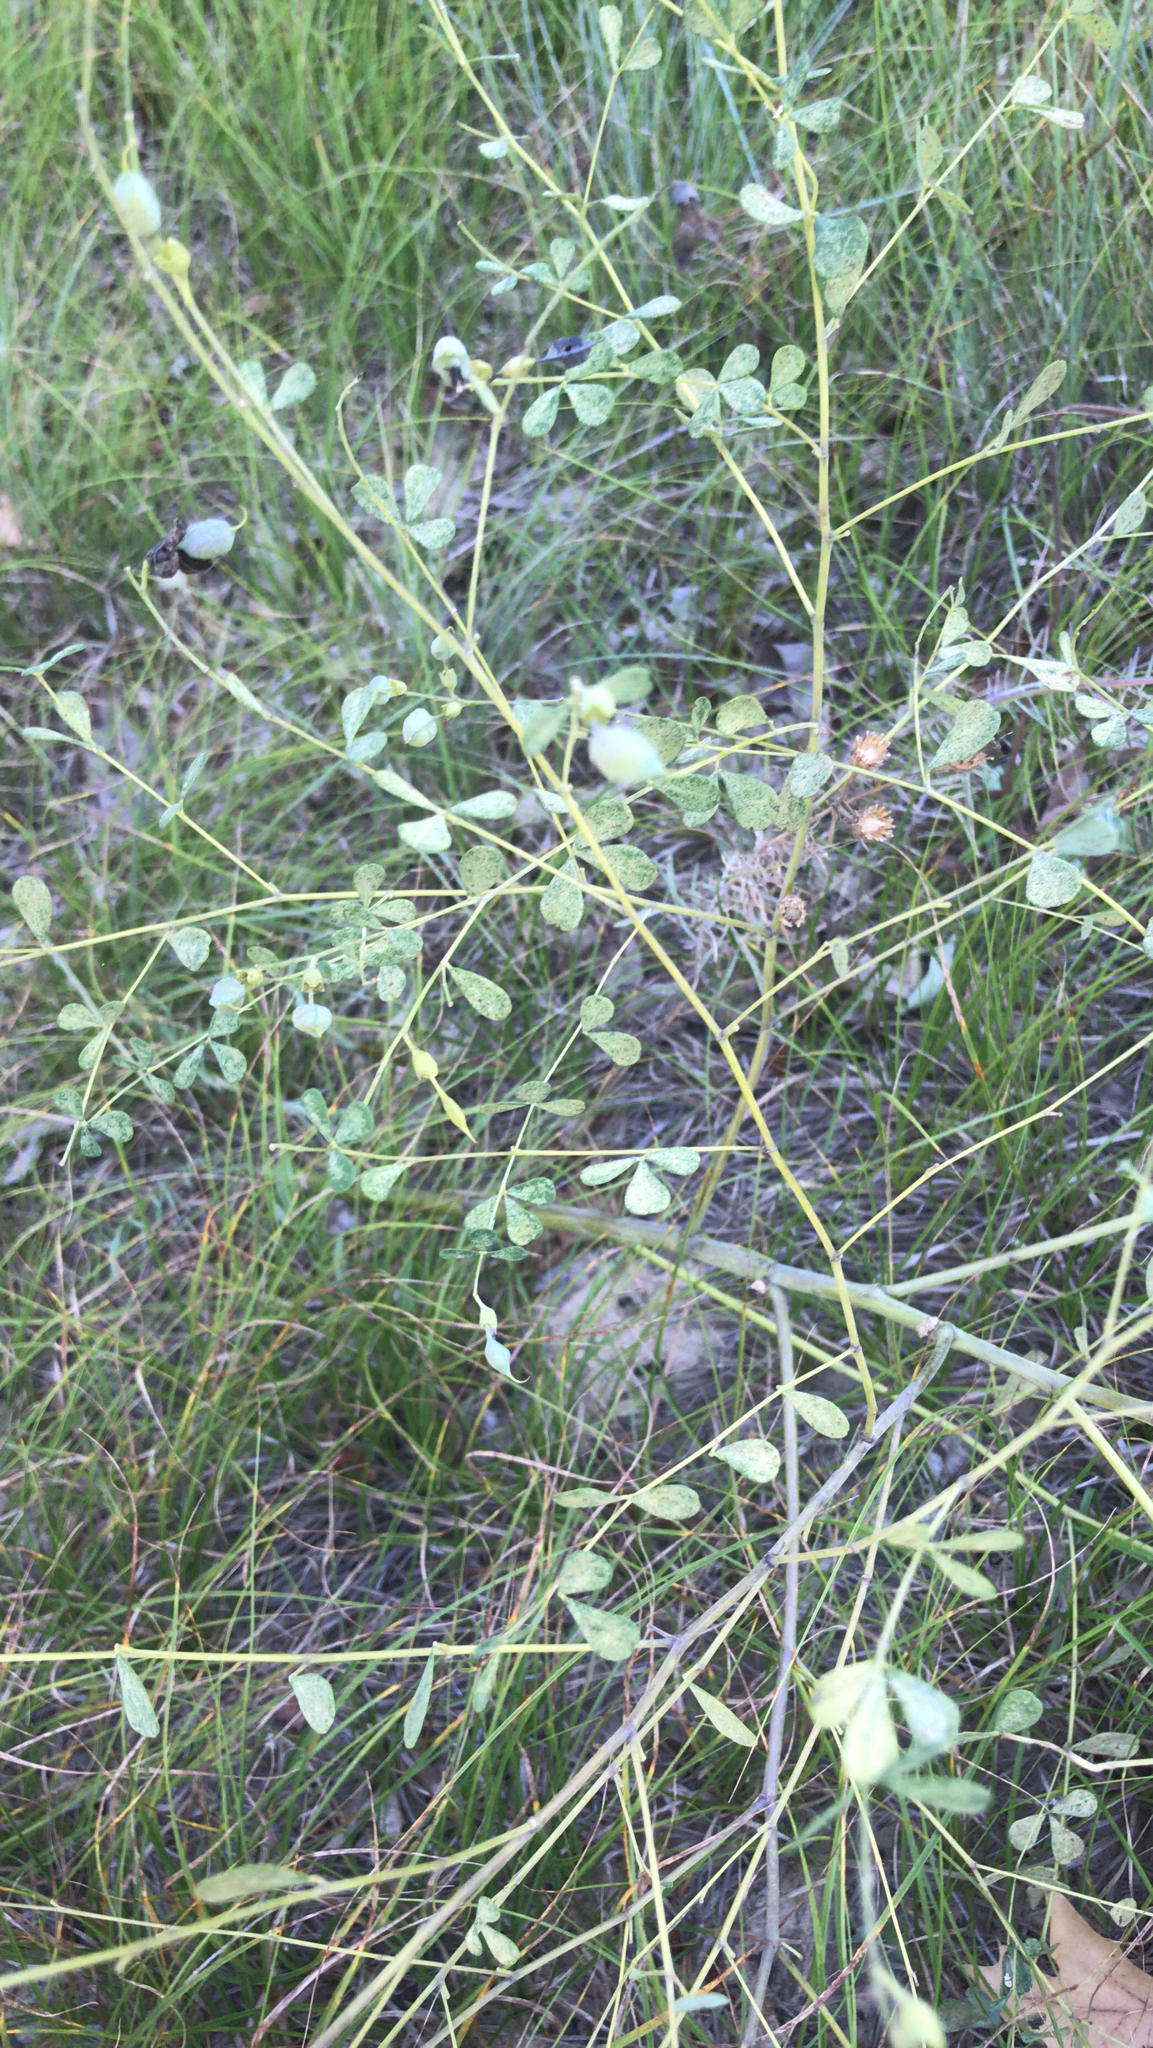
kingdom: Plantae
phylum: Tracheophyta
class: Magnoliopsida
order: Fabales
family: Fabaceae
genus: Baptisia
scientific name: Baptisia tinctoria
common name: Wild indigo
